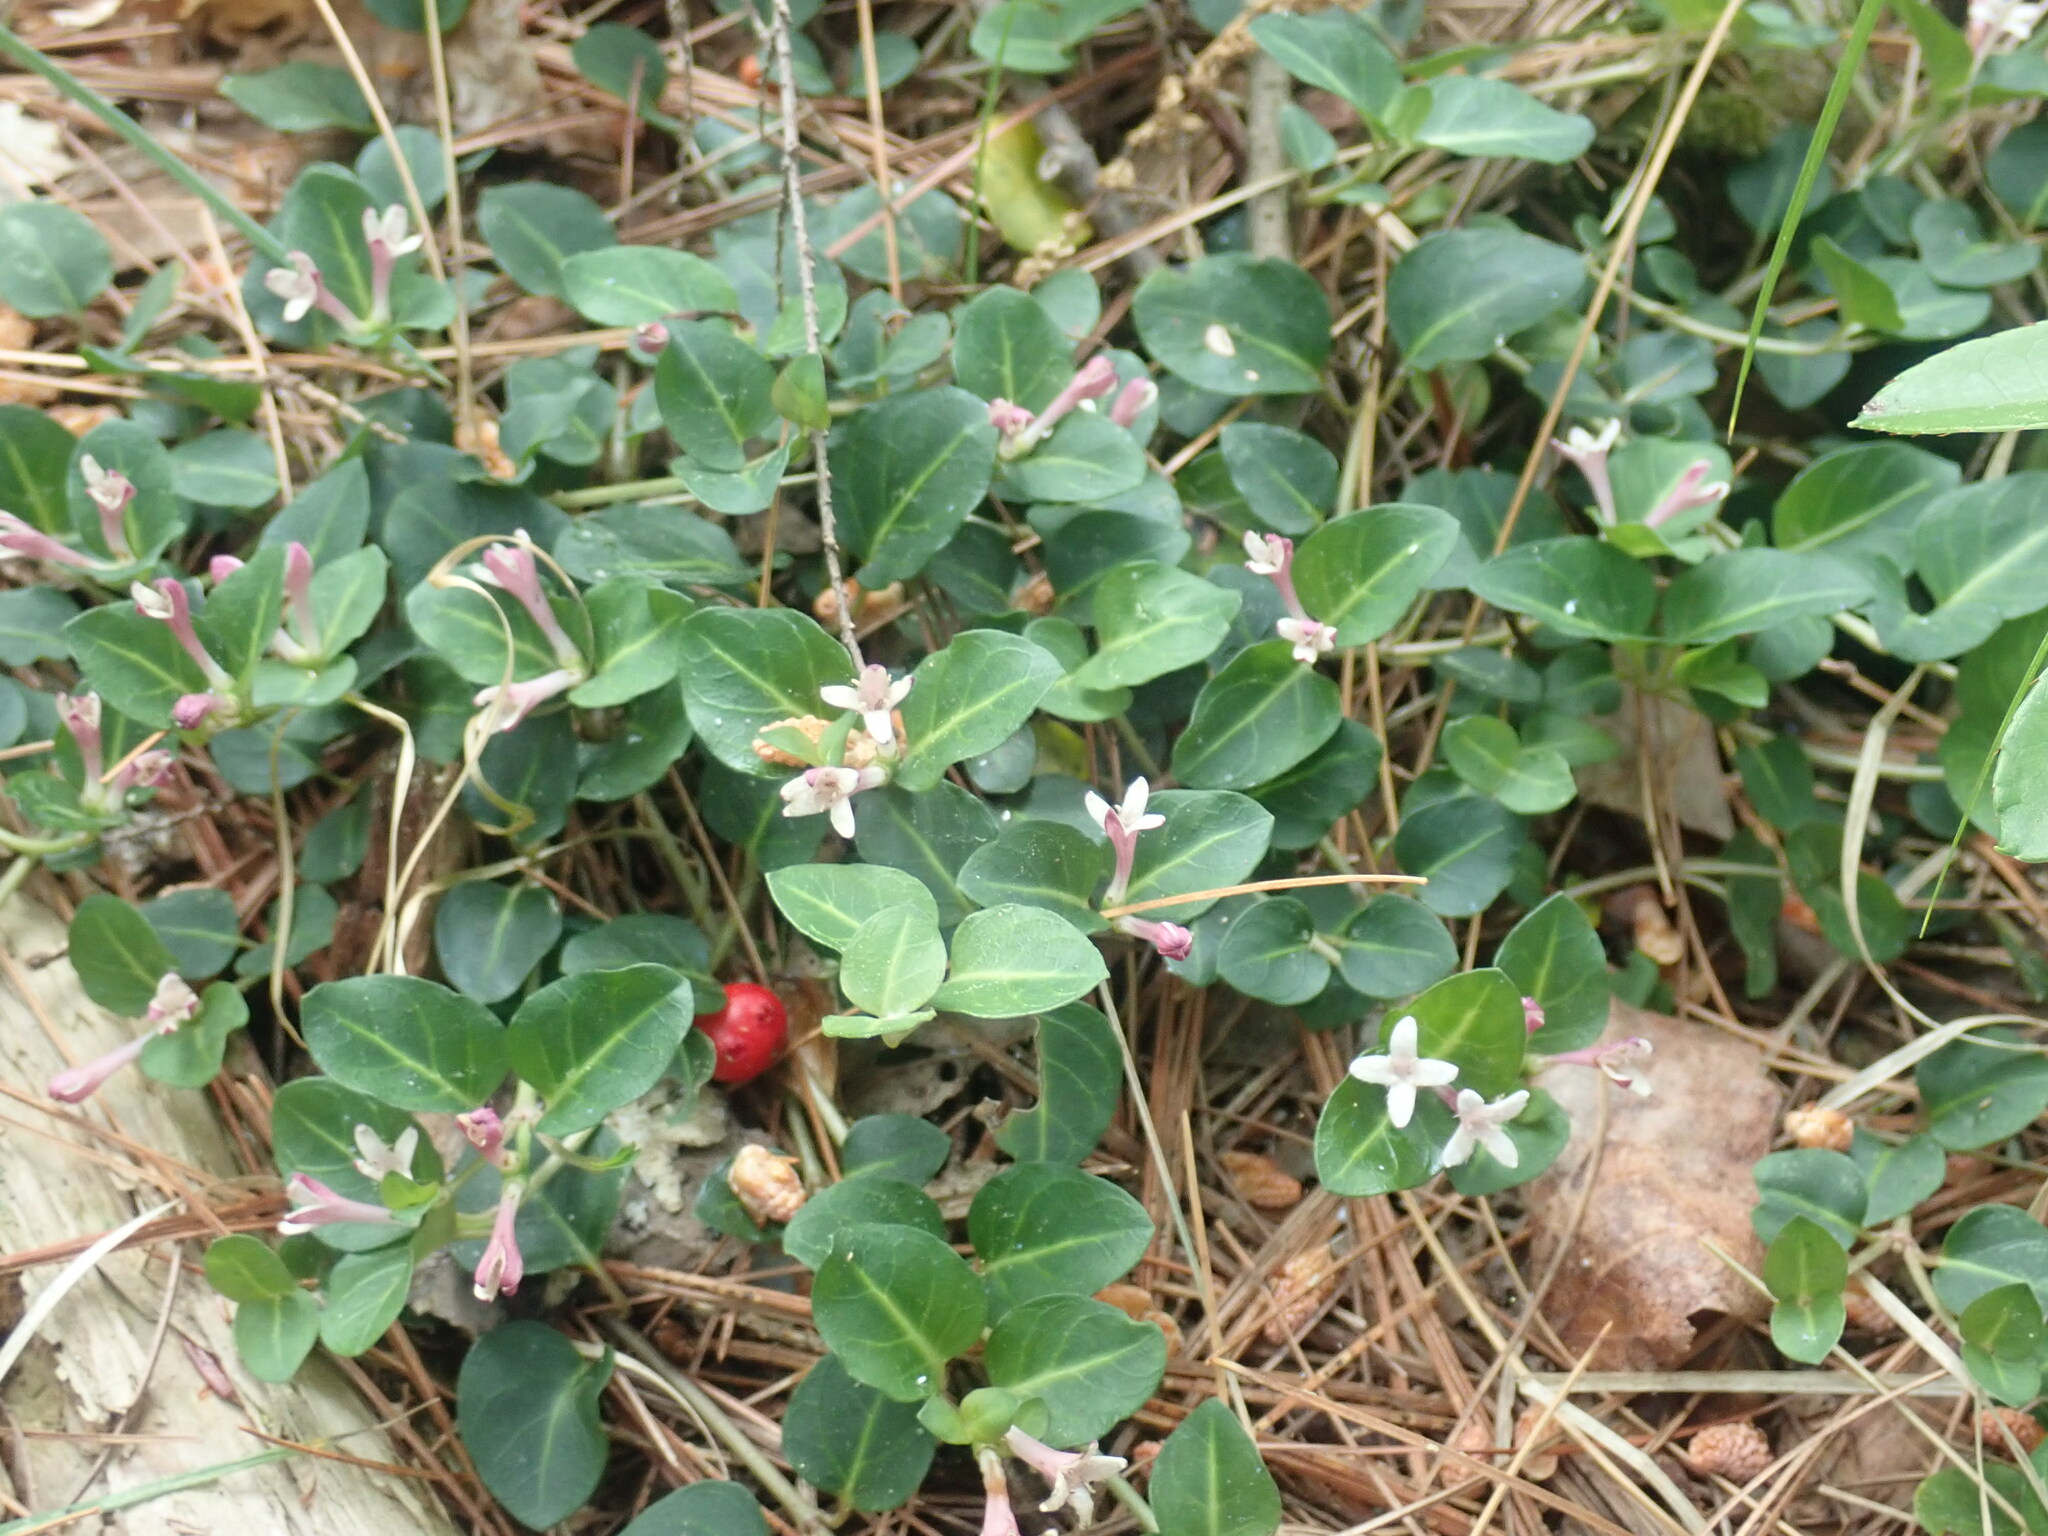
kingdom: Plantae
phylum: Tracheophyta
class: Magnoliopsida
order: Gentianales
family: Rubiaceae
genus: Mitchella
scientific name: Mitchella repens
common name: Partridge-berry
